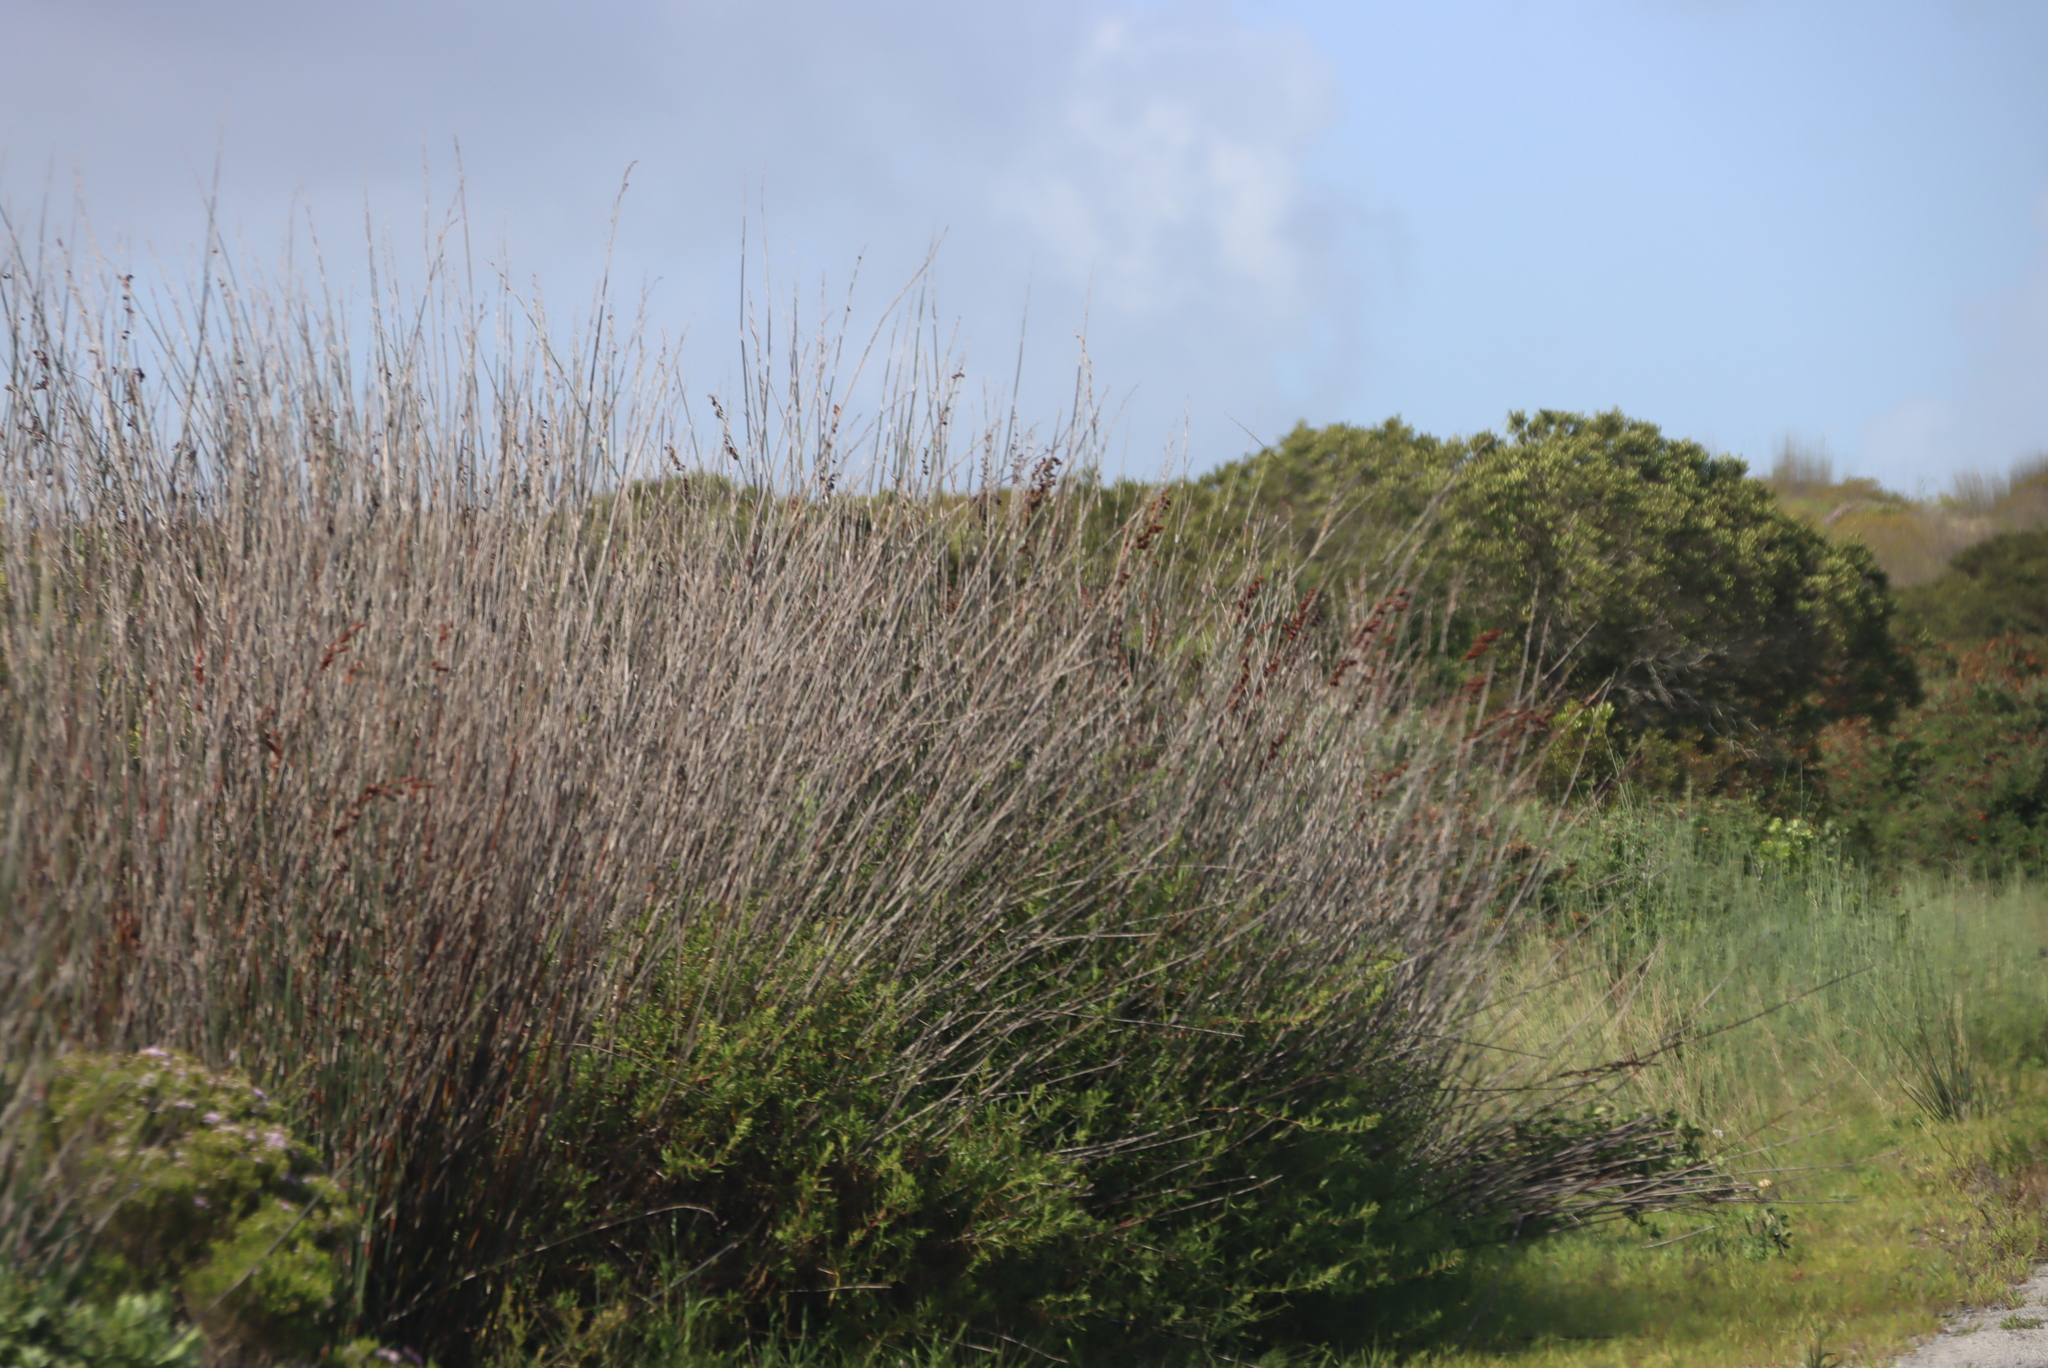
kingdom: Plantae
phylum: Tracheophyta
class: Liliopsida
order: Poales
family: Restionaceae
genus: Thamnochortus
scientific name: Thamnochortus spicigerus
